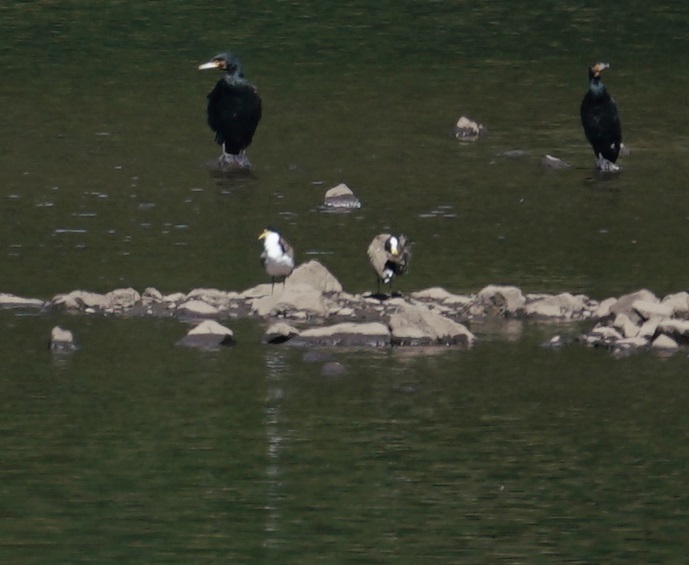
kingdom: Animalia
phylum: Chordata
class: Aves
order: Charadriiformes
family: Charadriidae
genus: Vanellus
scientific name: Vanellus miles
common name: Masked lapwing
